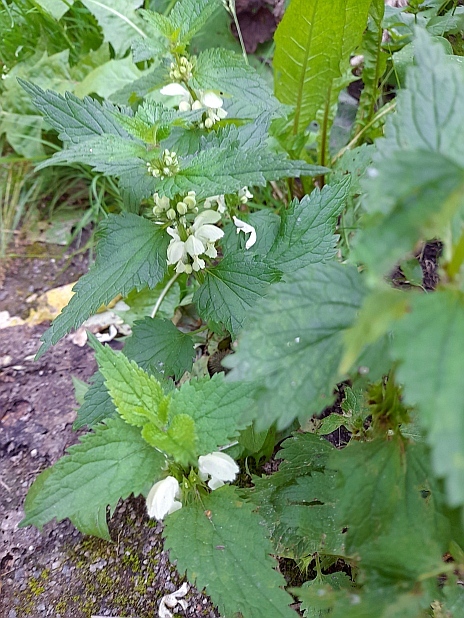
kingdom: Plantae
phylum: Tracheophyta
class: Magnoliopsida
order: Lamiales
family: Lamiaceae
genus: Lamium
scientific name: Lamium album
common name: White dead-nettle
